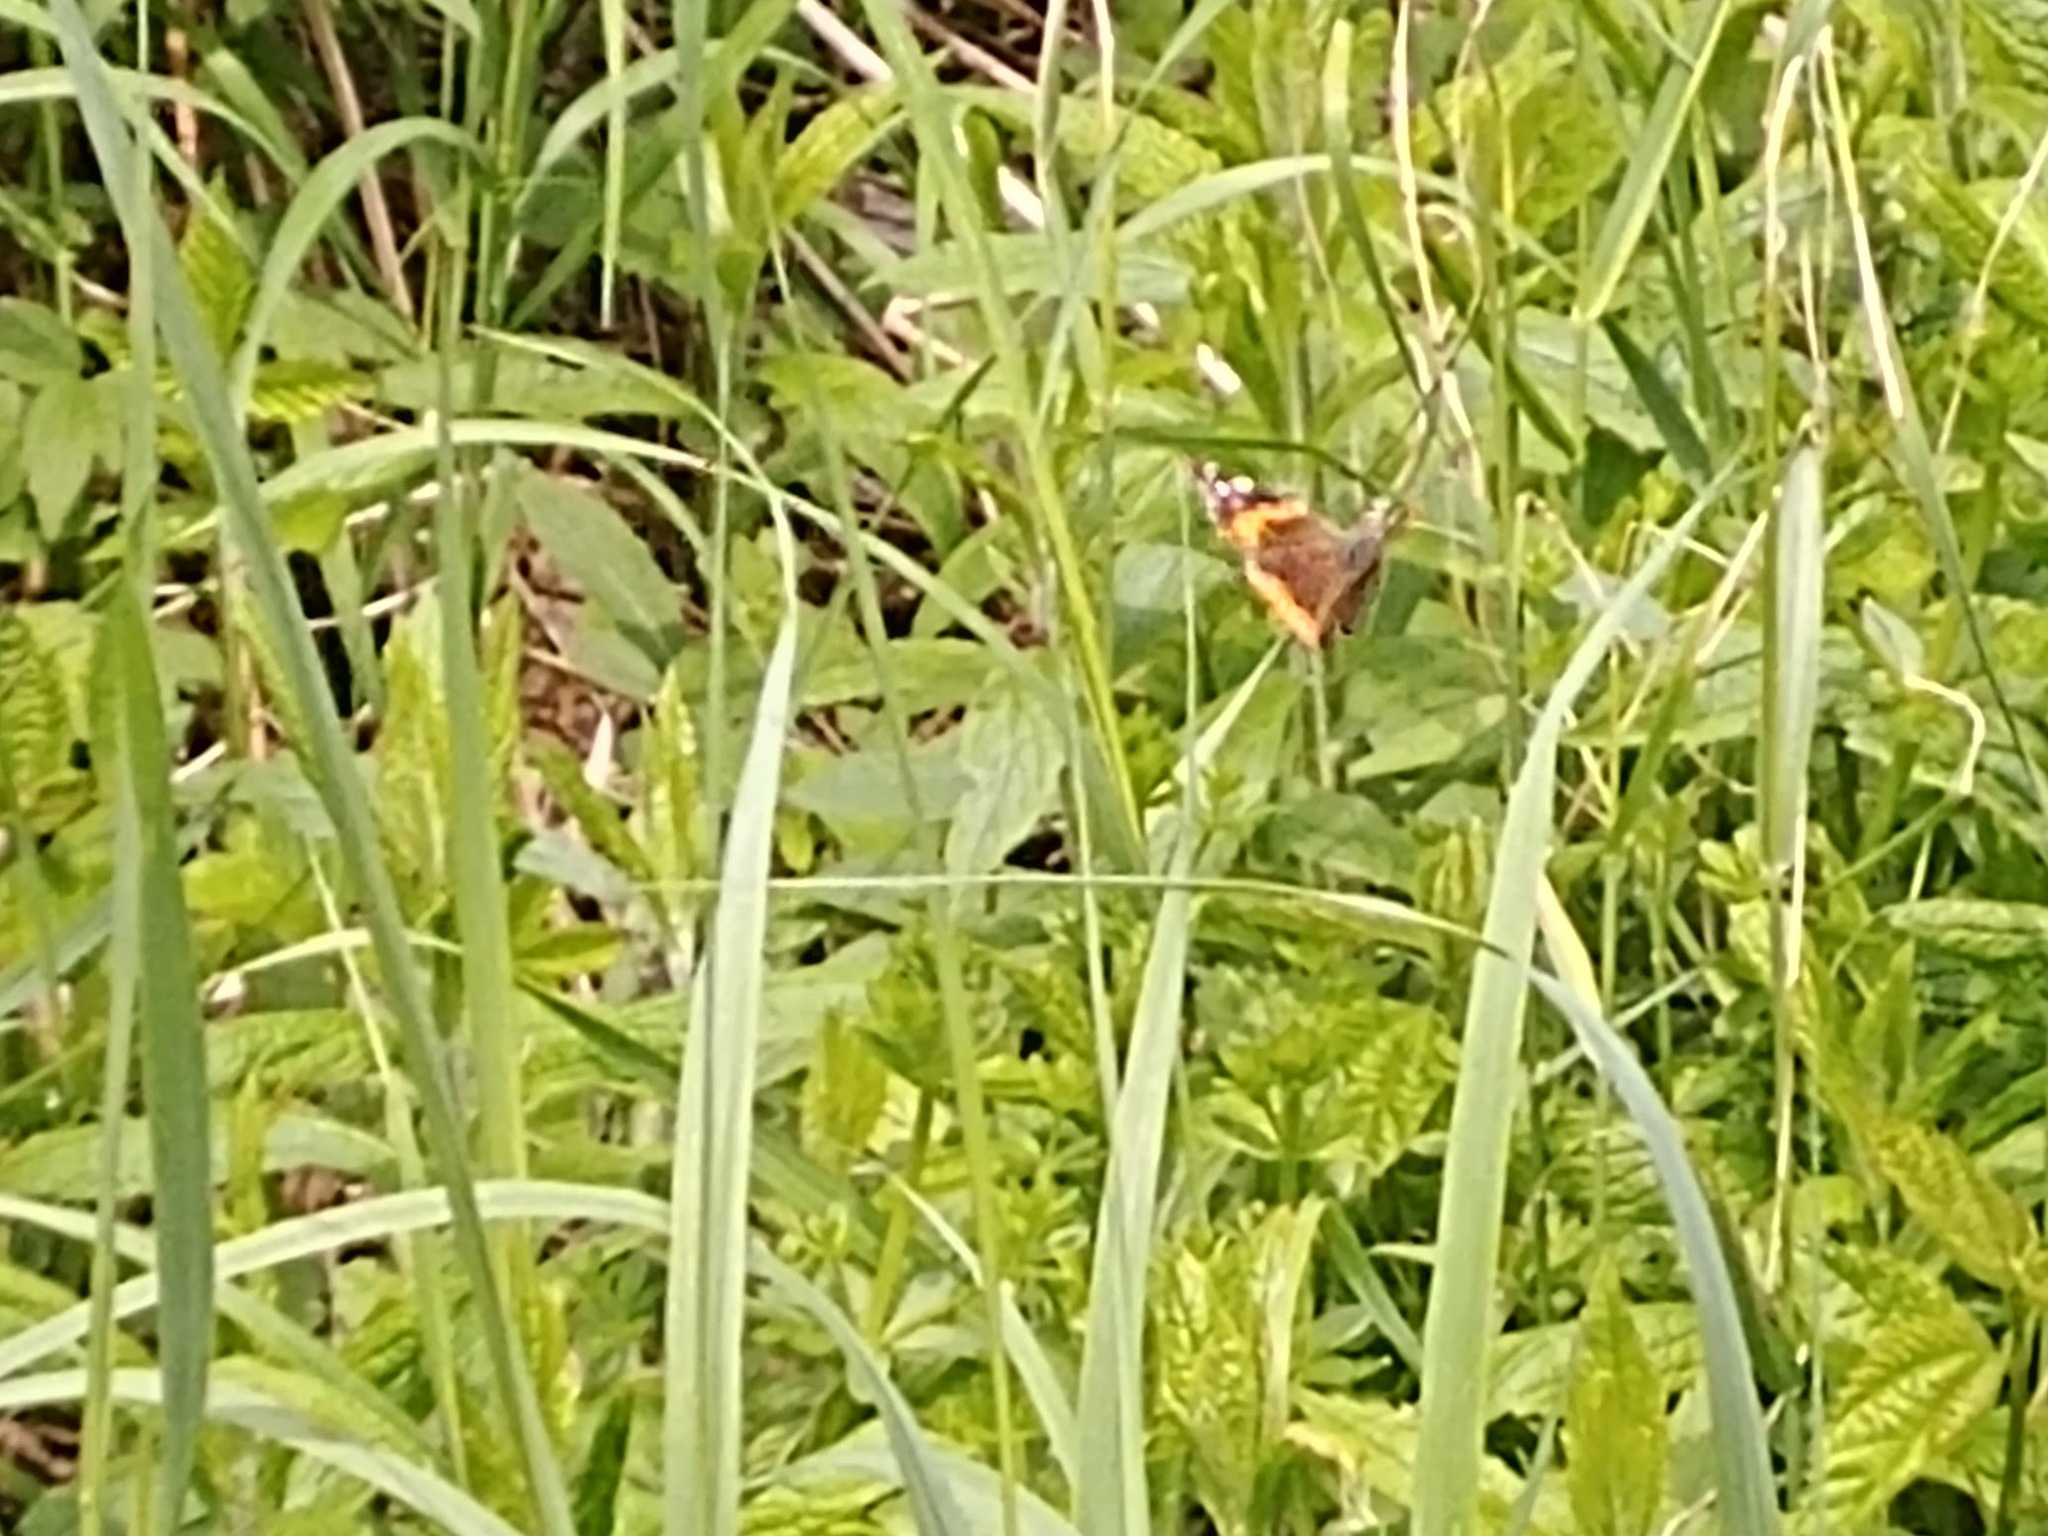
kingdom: Animalia
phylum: Arthropoda
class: Insecta
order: Lepidoptera
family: Nymphalidae
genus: Vanessa
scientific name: Vanessa atalanta
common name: Red admiral
